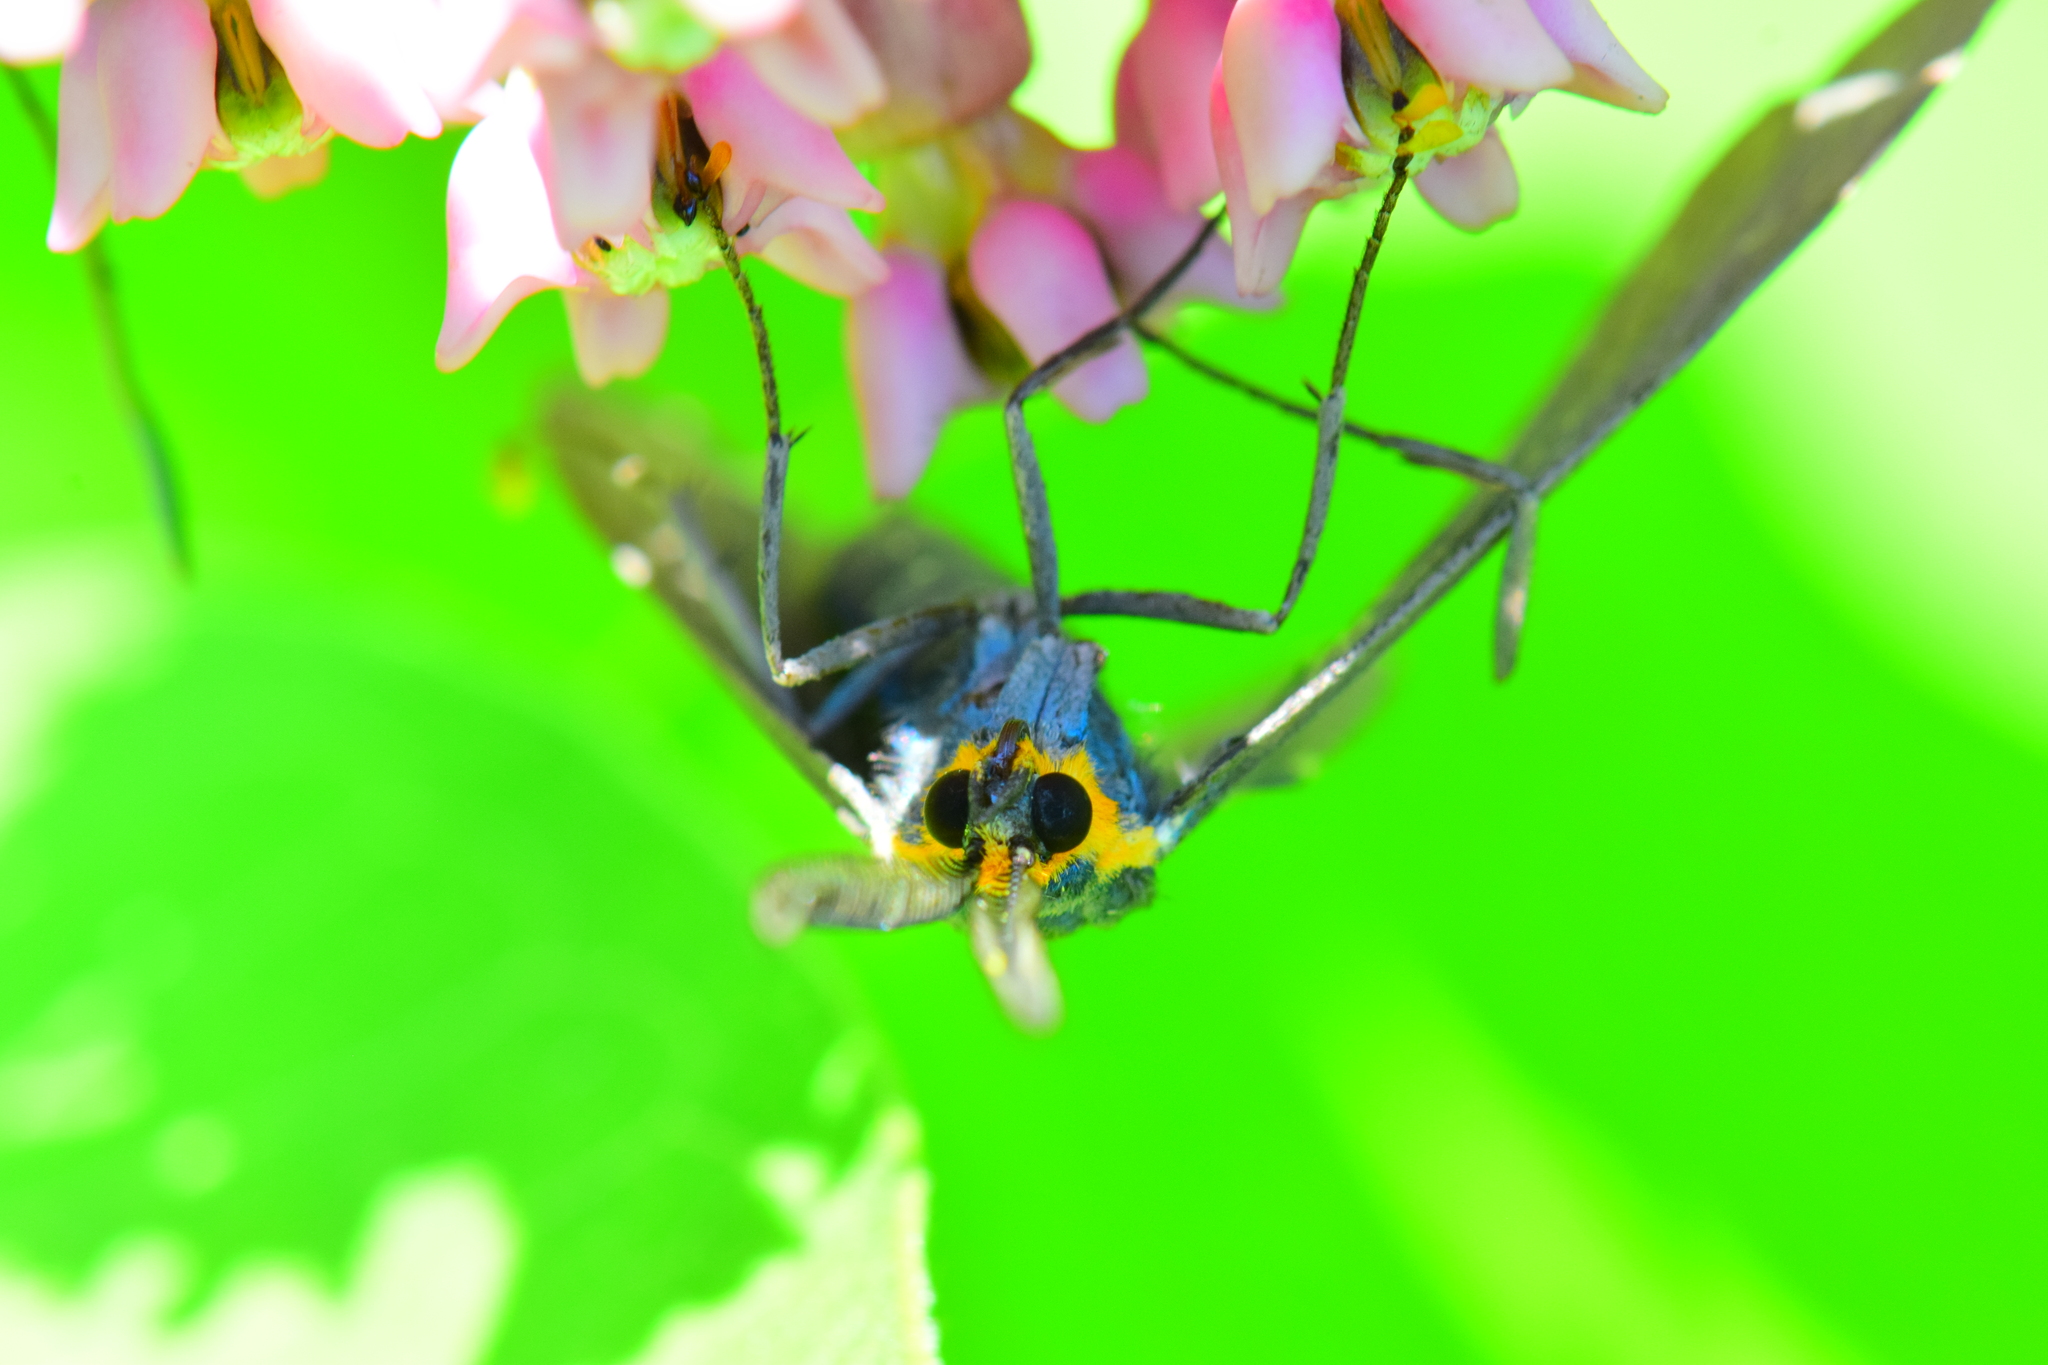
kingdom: Animalia
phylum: Arthropoda
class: Insecta
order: Lepidoptera
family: Erebidae
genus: Ctenucha
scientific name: Ctenucha virginica
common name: Virginia ctenucha moth
